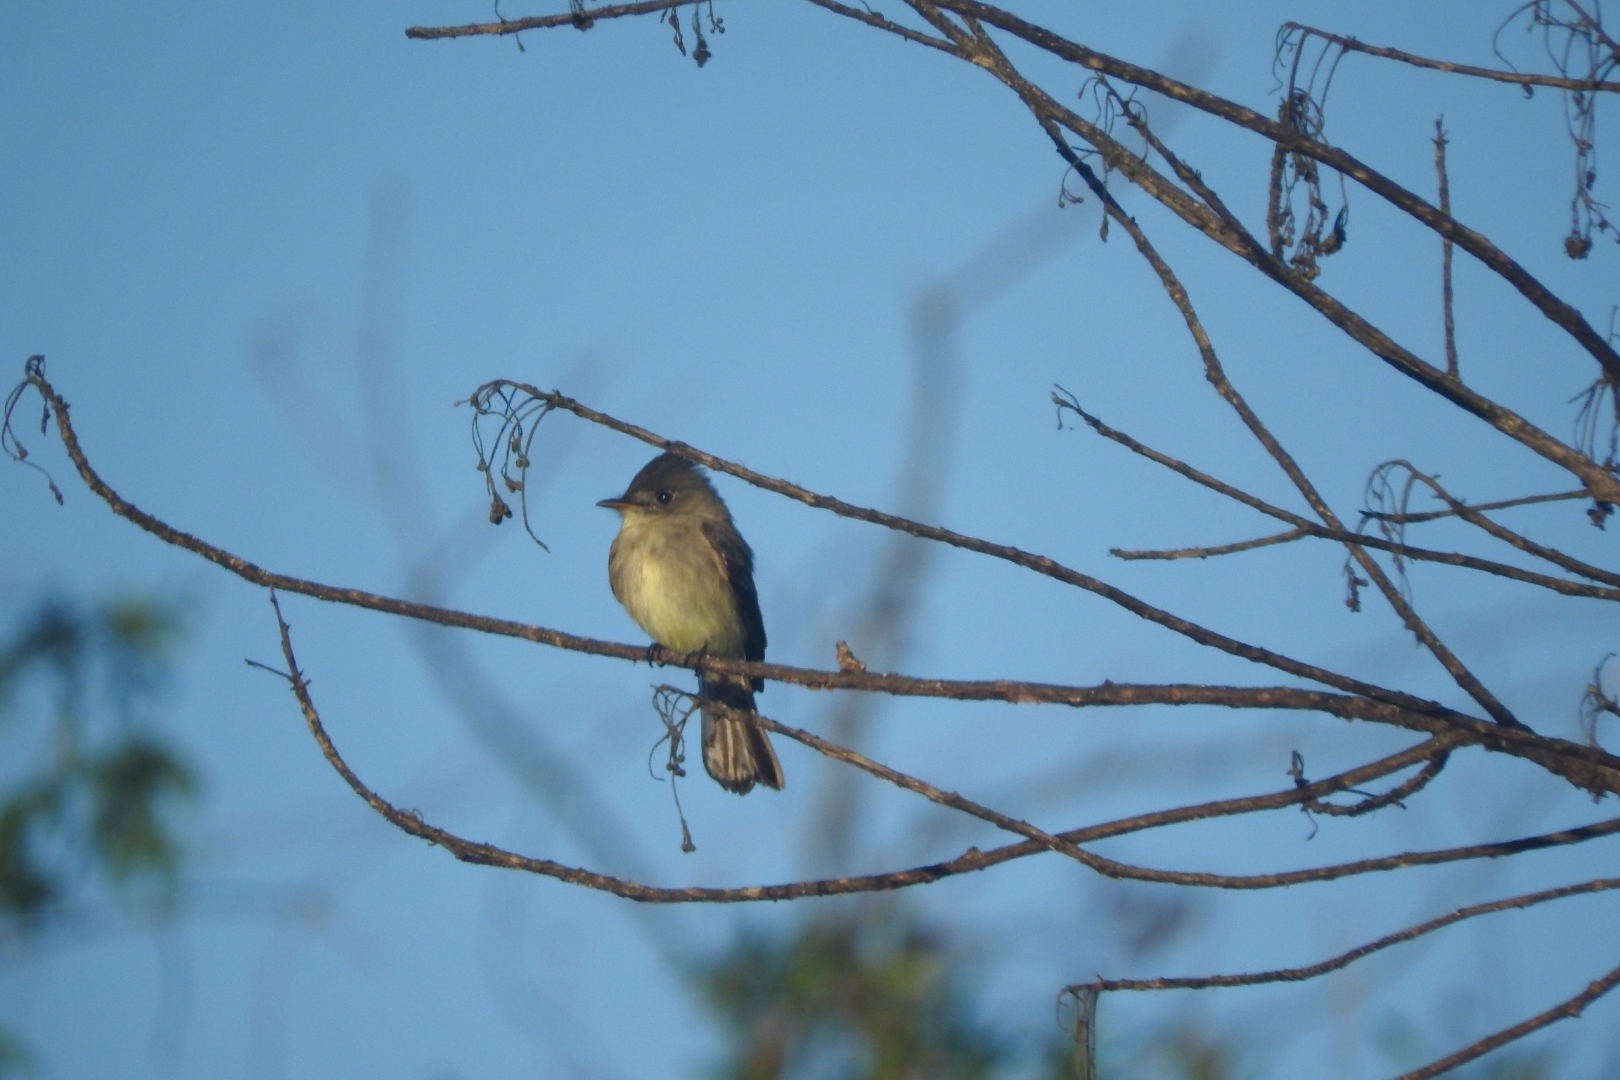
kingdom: Animalia
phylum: Chordata
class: Aves
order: Passeriformes
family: Tyrannidae
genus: Contopus
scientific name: Contopus cinereus
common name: Tropical pewee
